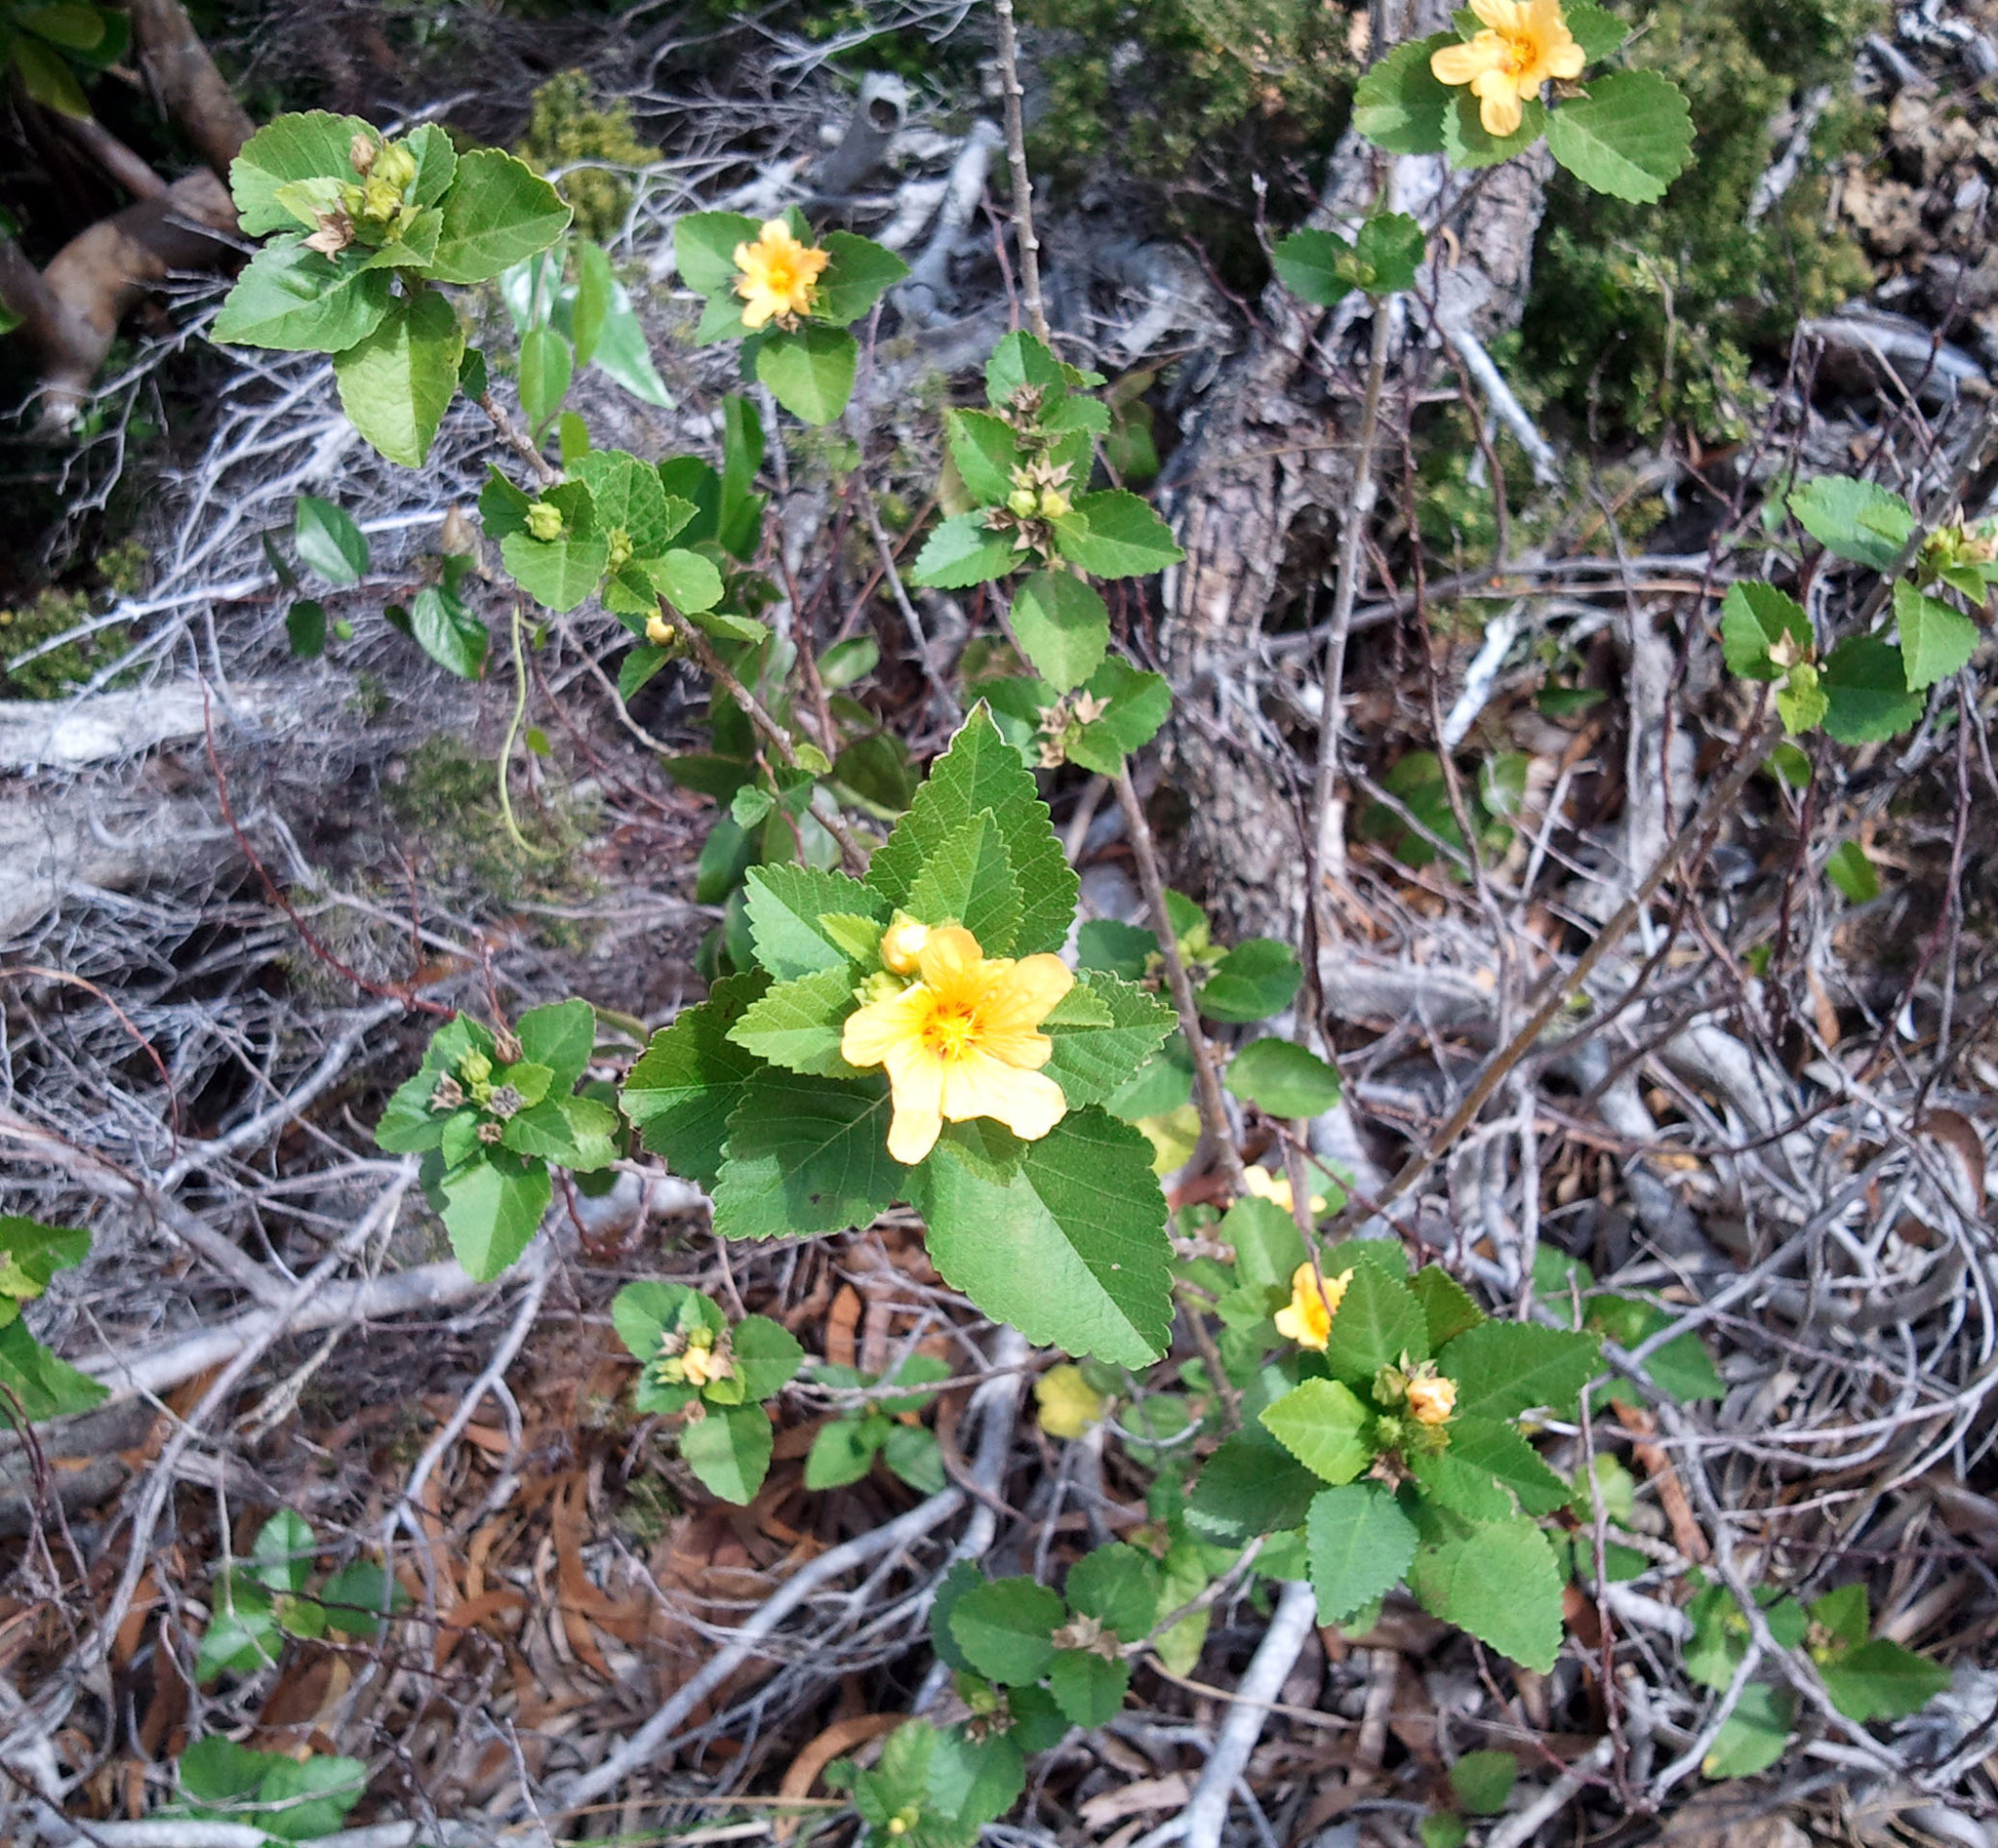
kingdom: Plantae
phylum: Tracheophyta
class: Magnoliopsida
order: Malvales
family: Malvaceae
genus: Sida
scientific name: Sida fallax
